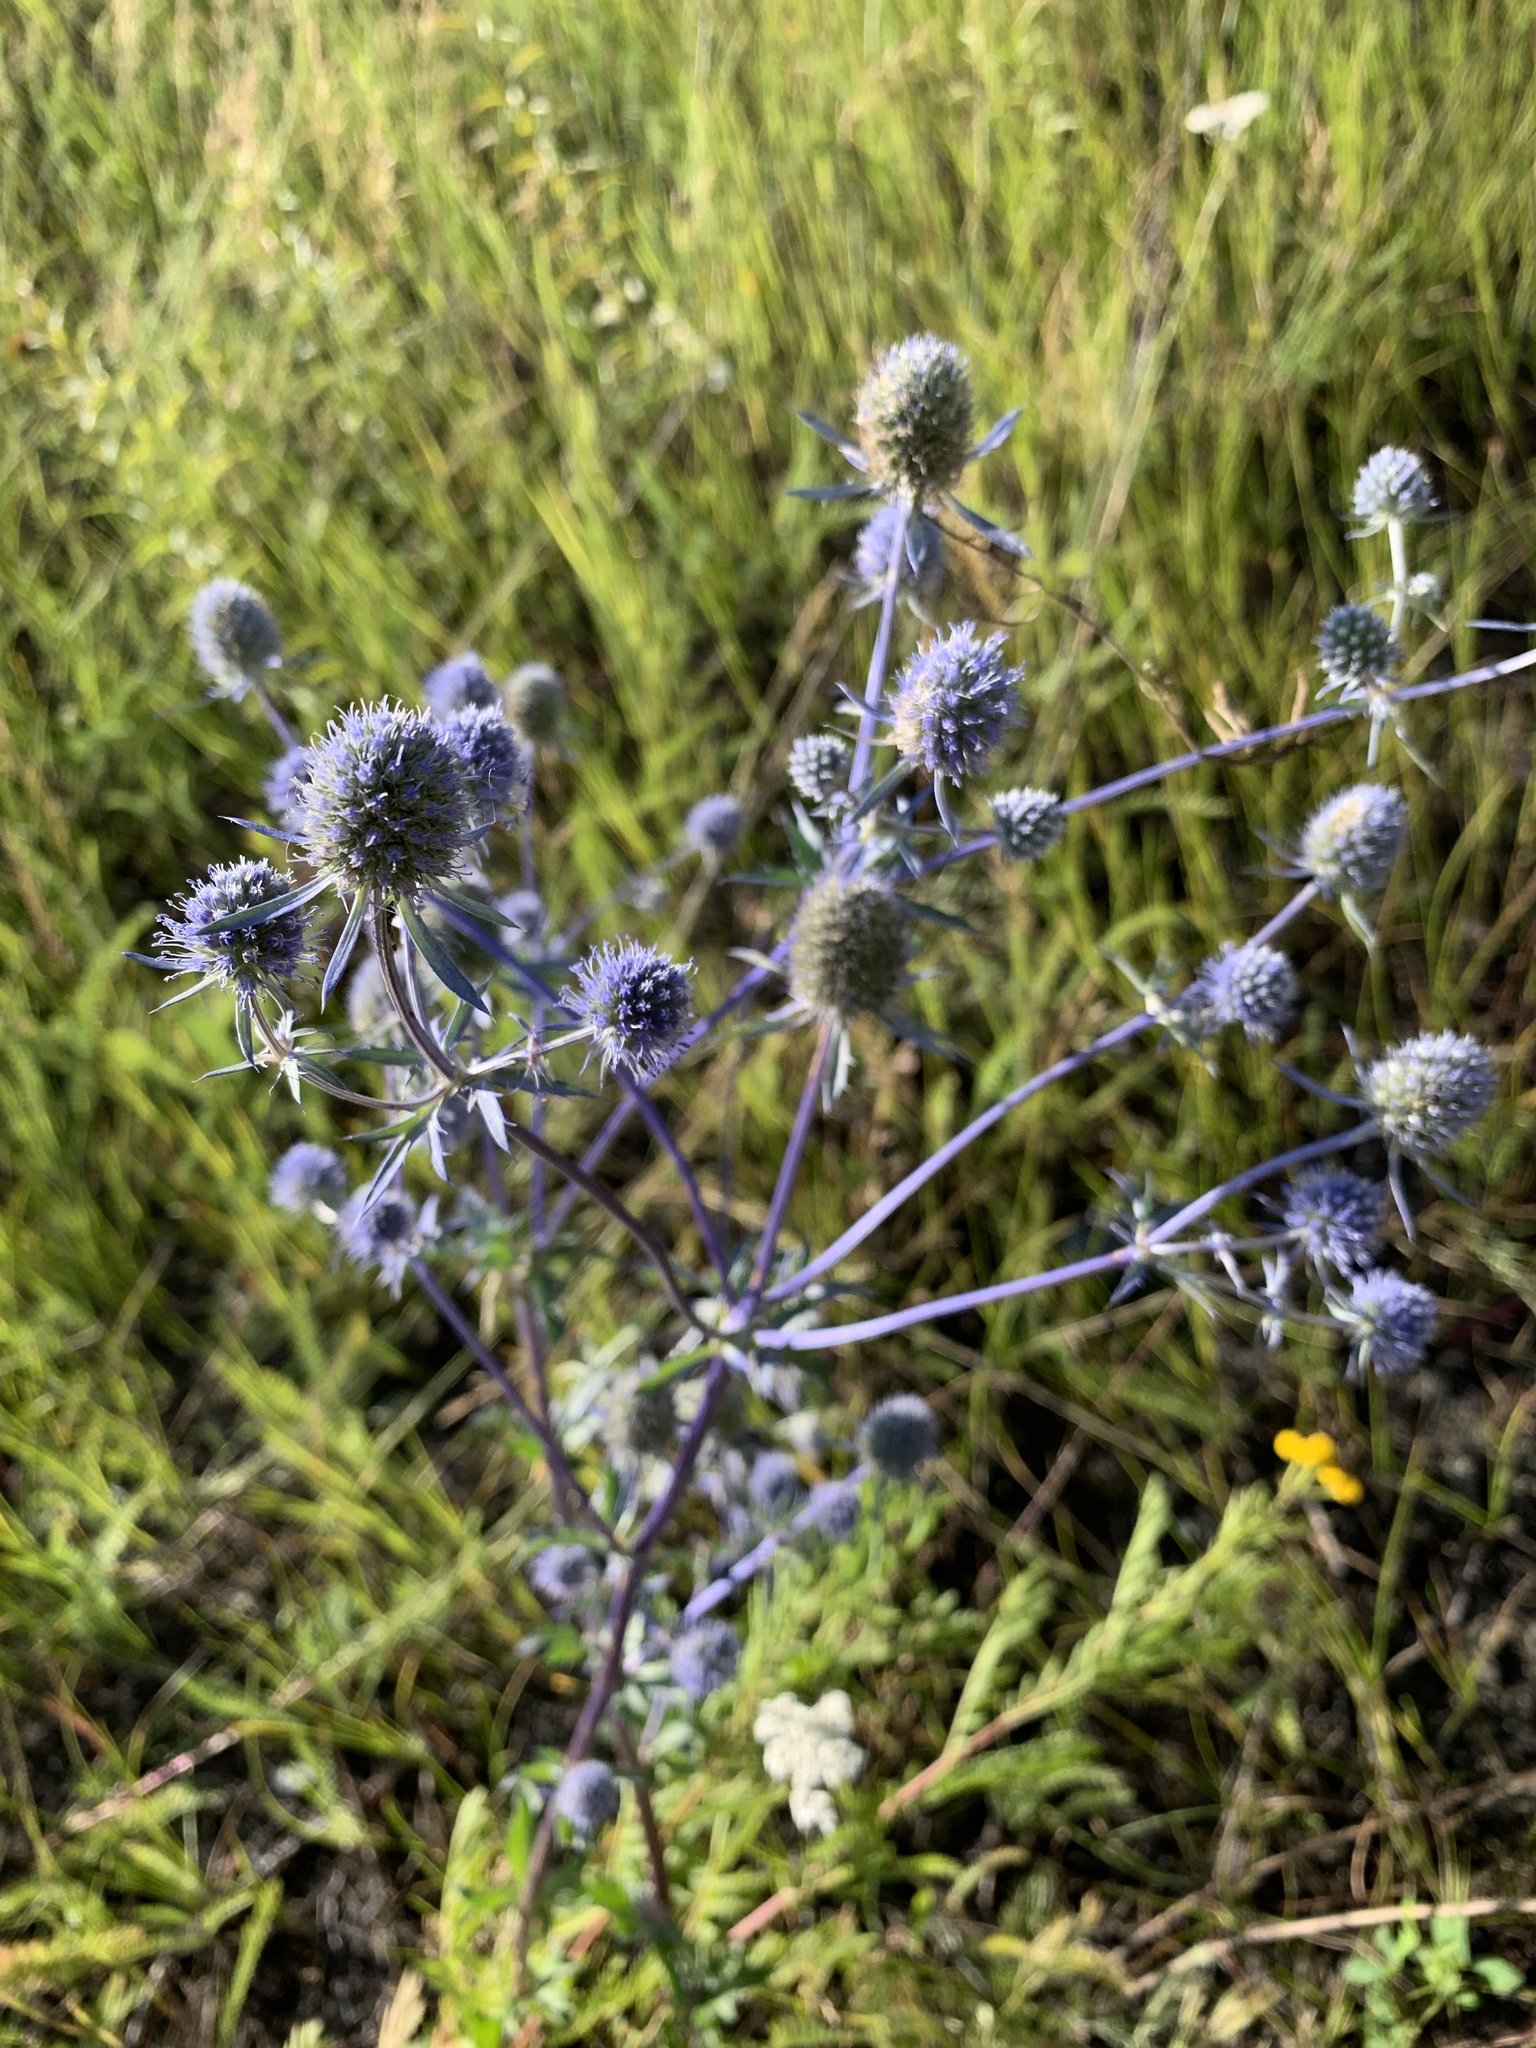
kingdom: Plantae
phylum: Tracheophyta
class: Magnoliopsida
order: Apiales
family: Apiaceae
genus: Eryngium
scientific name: Eryngium planum
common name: Blue eryngo
